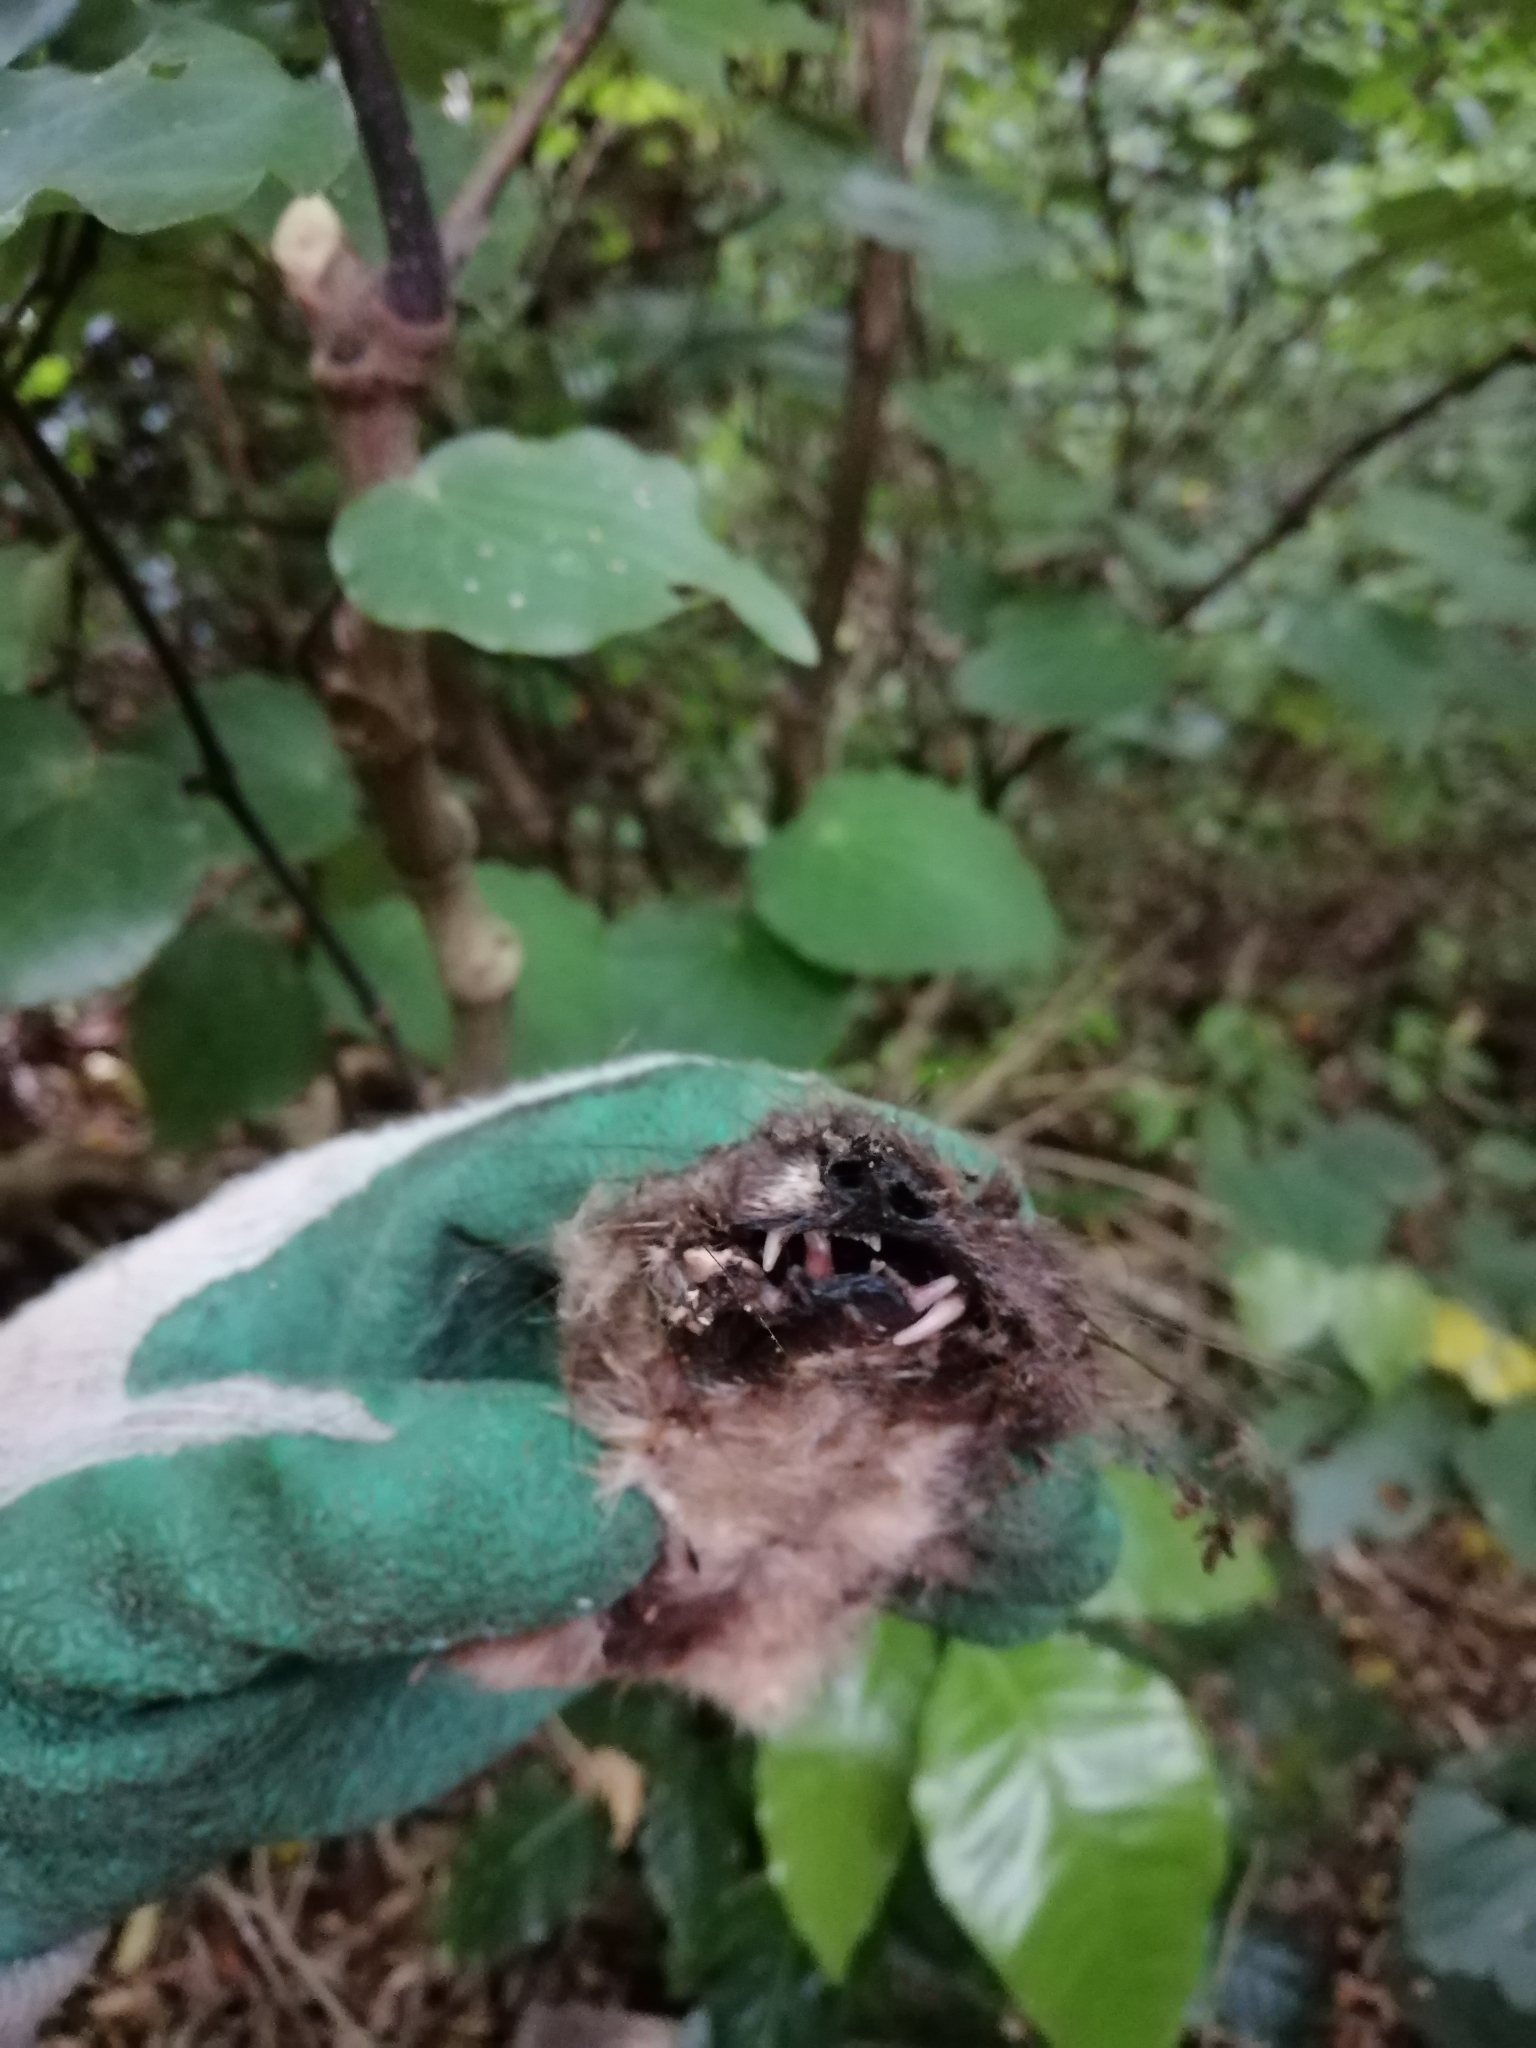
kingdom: Animalia
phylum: Chordata
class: Mammalia
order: Carnivora
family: Mustelidae
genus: Mustela
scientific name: Mustela erminea
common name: Stoat
